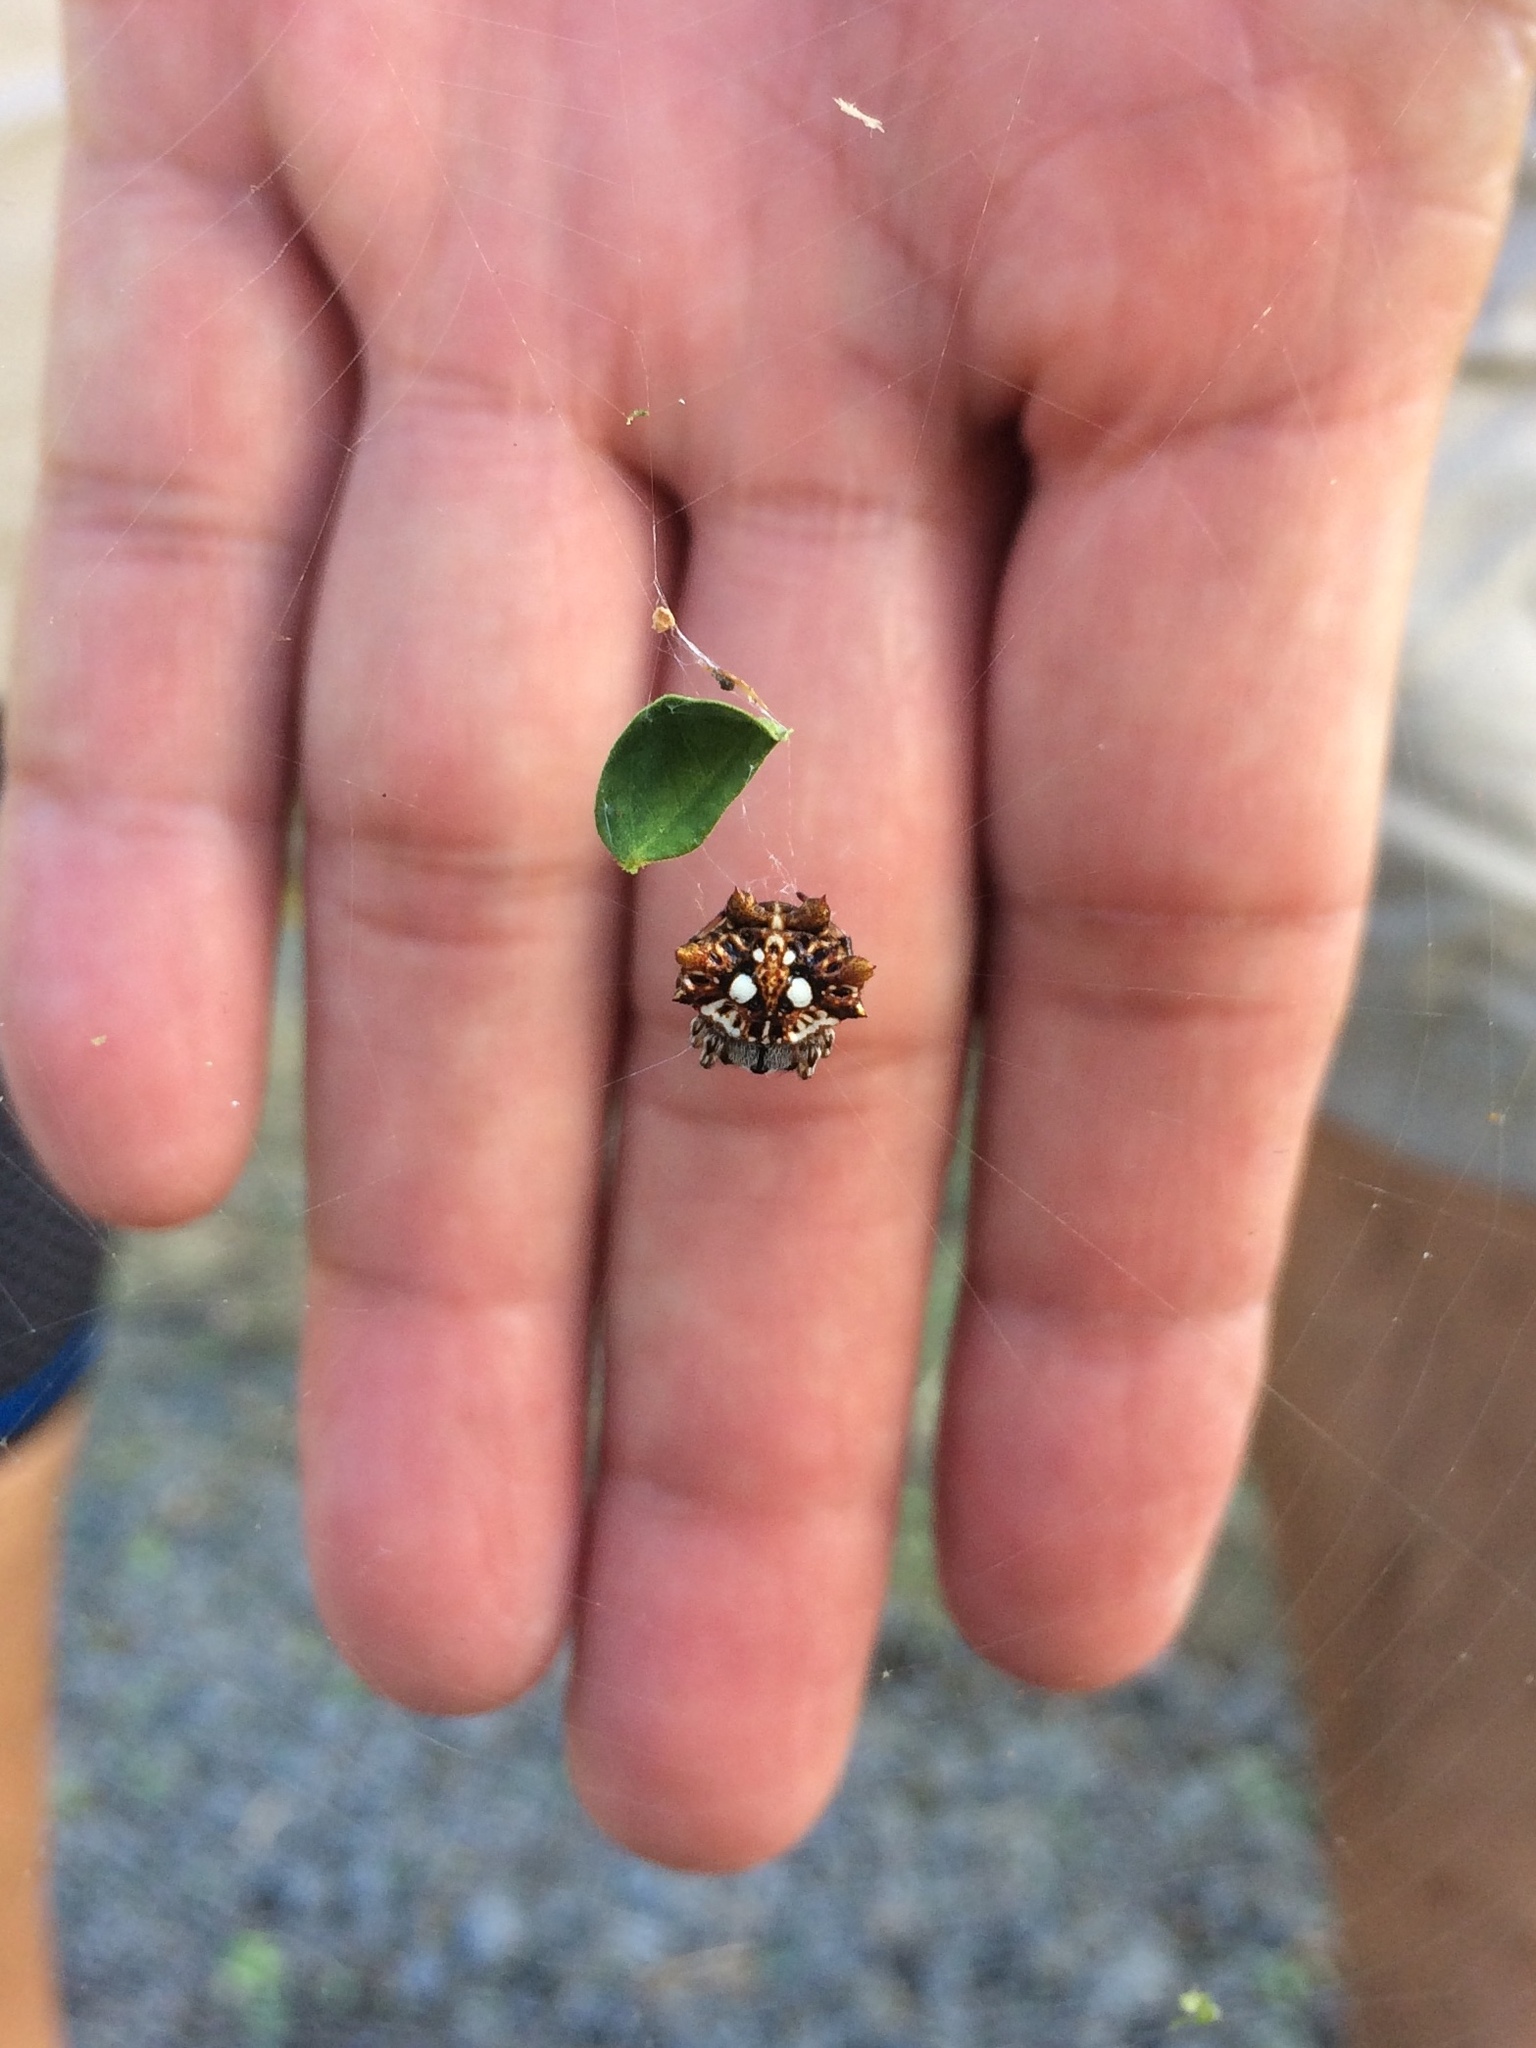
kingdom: Animalia
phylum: Arthropoda
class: Arachnida
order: Araneae
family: Araneidae
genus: Thelacantha
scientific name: Thelacantha brevispina
